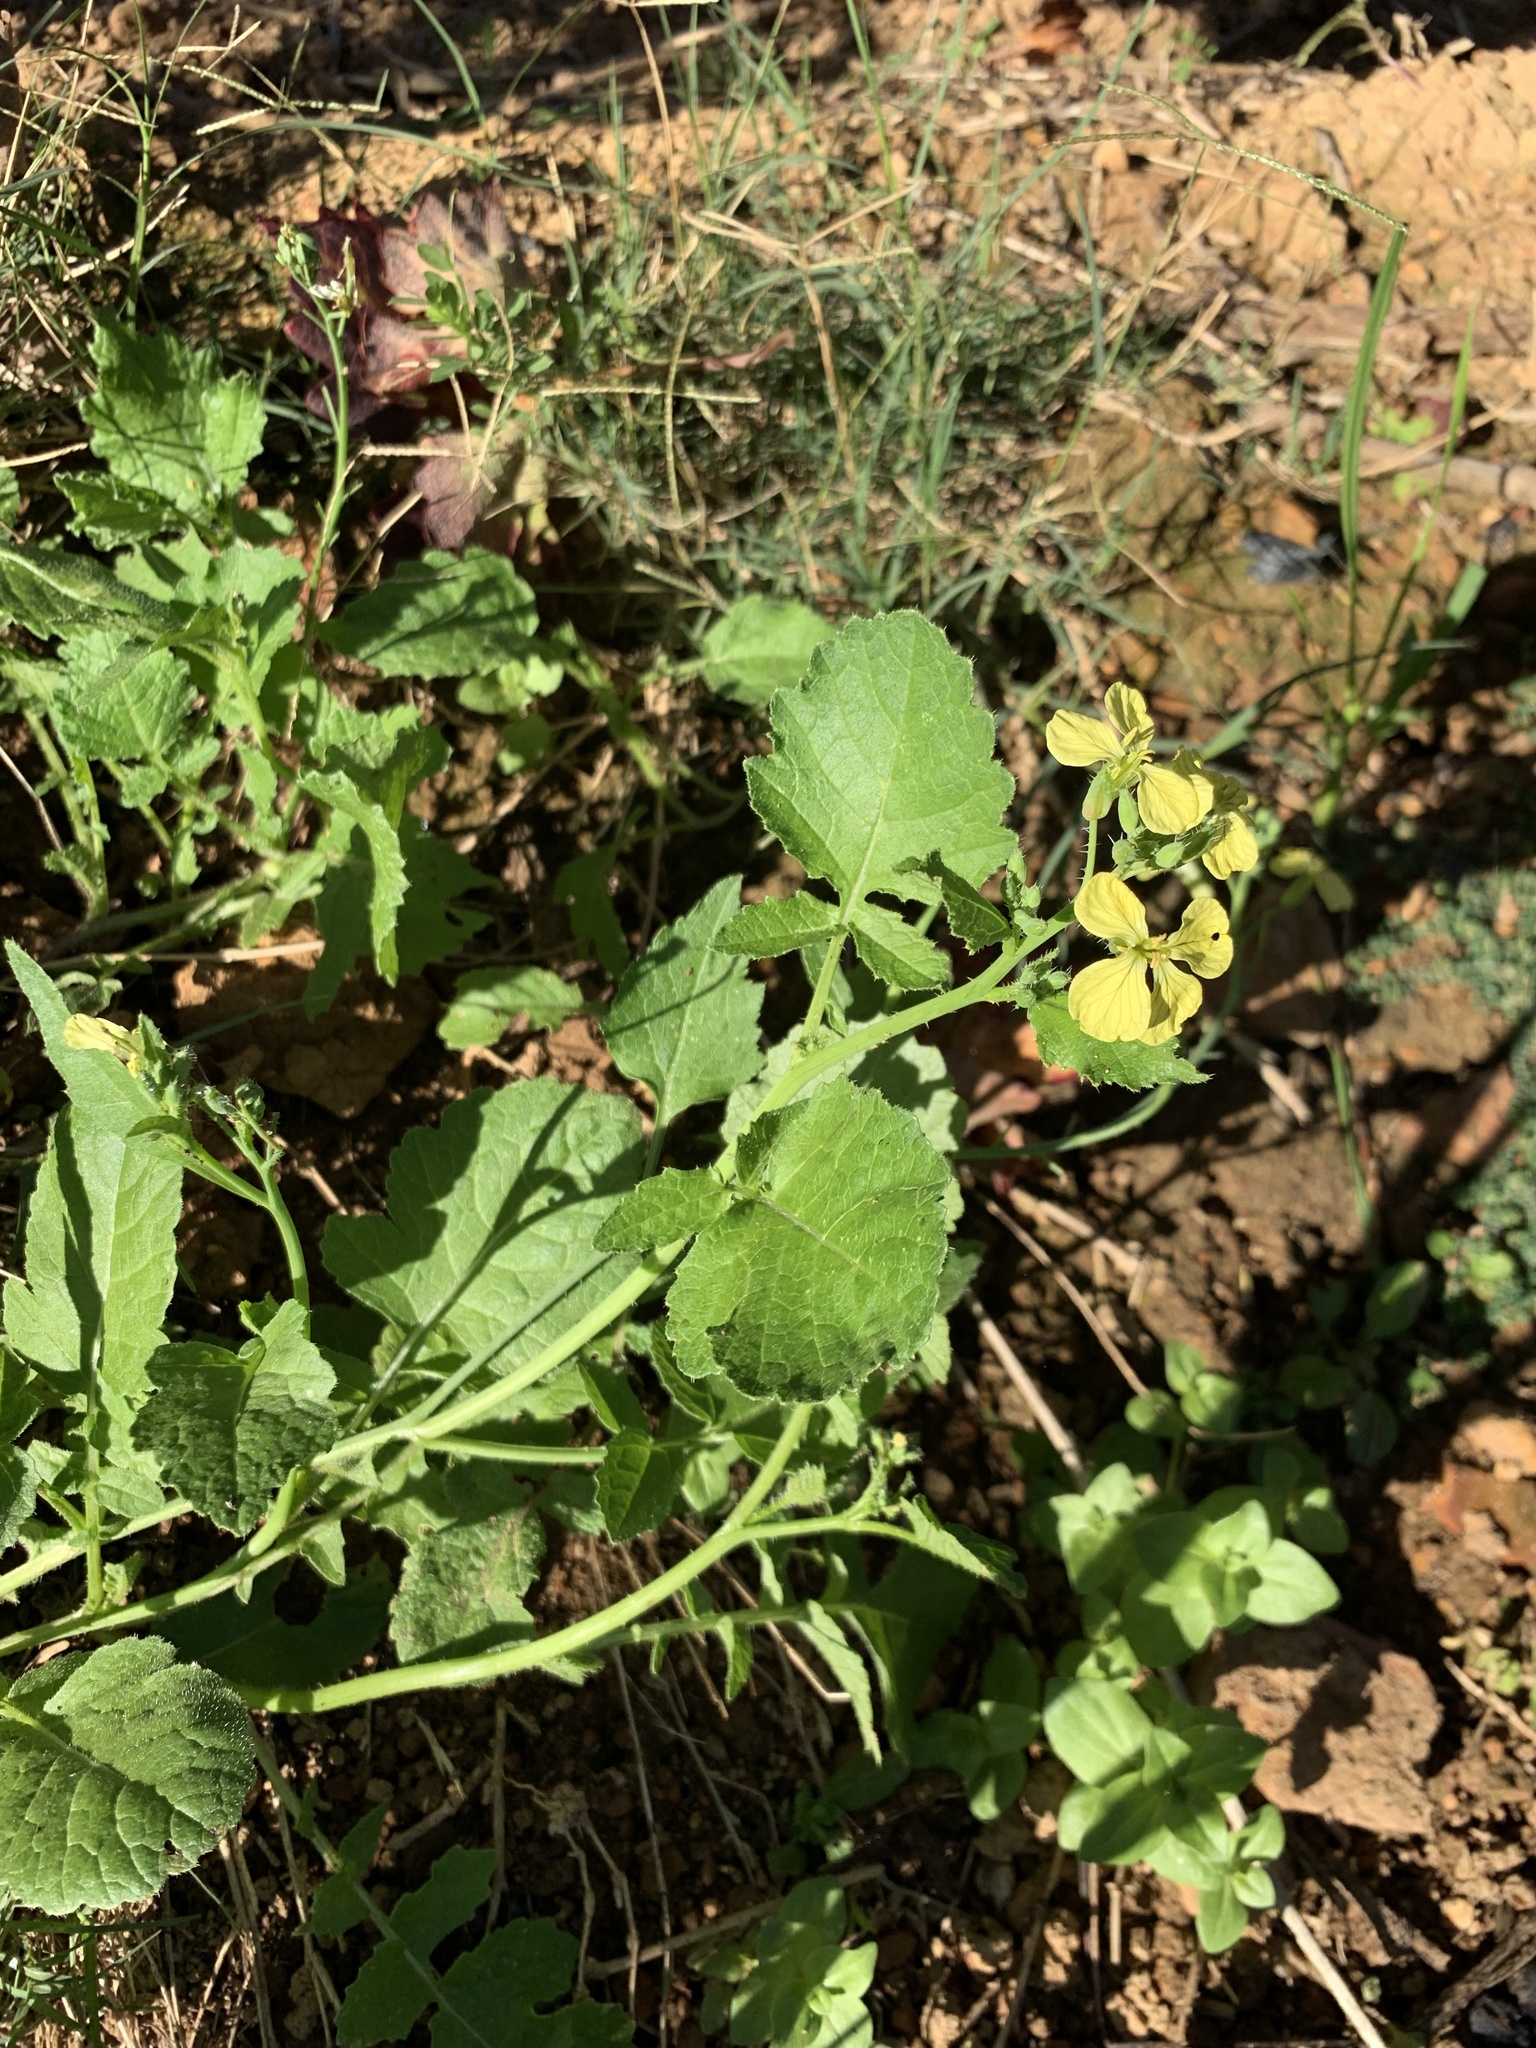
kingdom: Plantae
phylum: Tracheophyta
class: Magnoliopsida
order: Brassicales
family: Brassicaceae
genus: Raphanus
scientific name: Raphanus raphanistrum
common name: Wild radish
